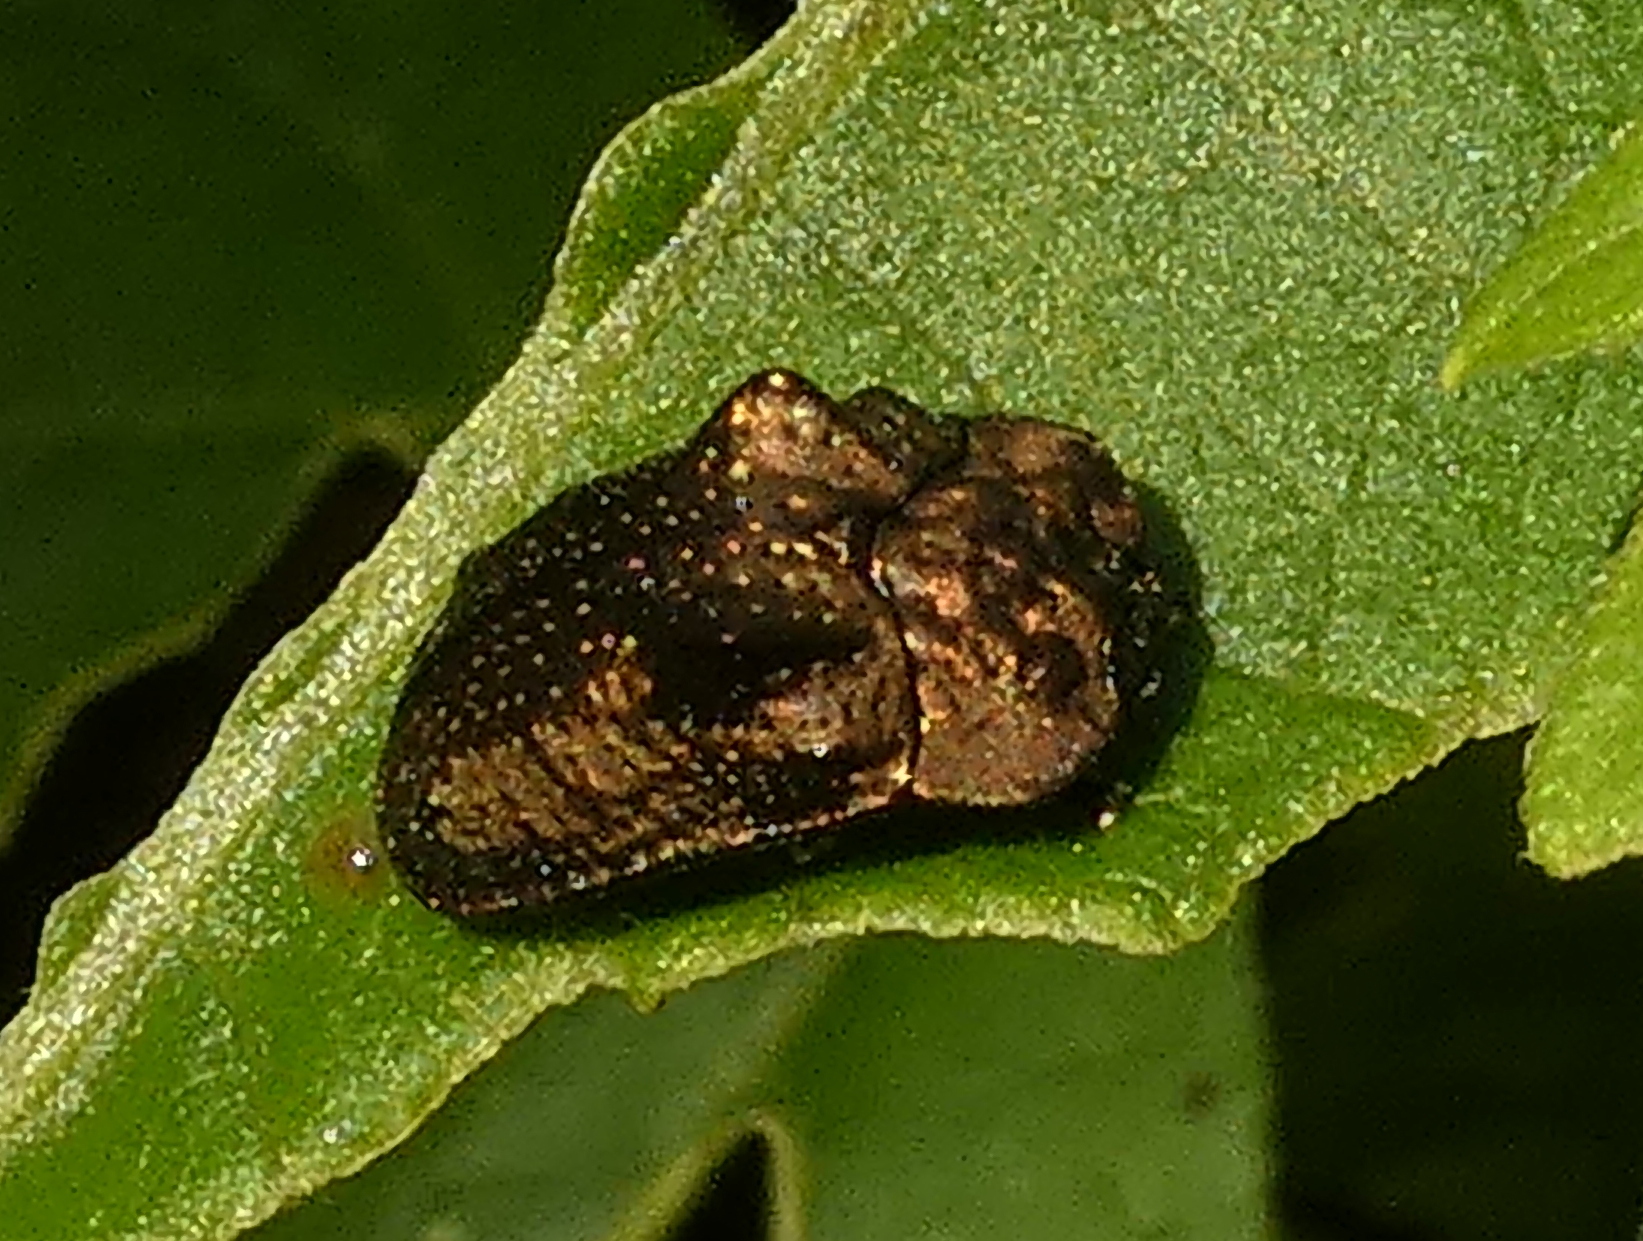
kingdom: Animalia
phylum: Arthropoda
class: Insecta
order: Coleoptera
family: Chrysomelidae
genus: Chlamydocassis
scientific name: Chlamydocassis bicornuta
